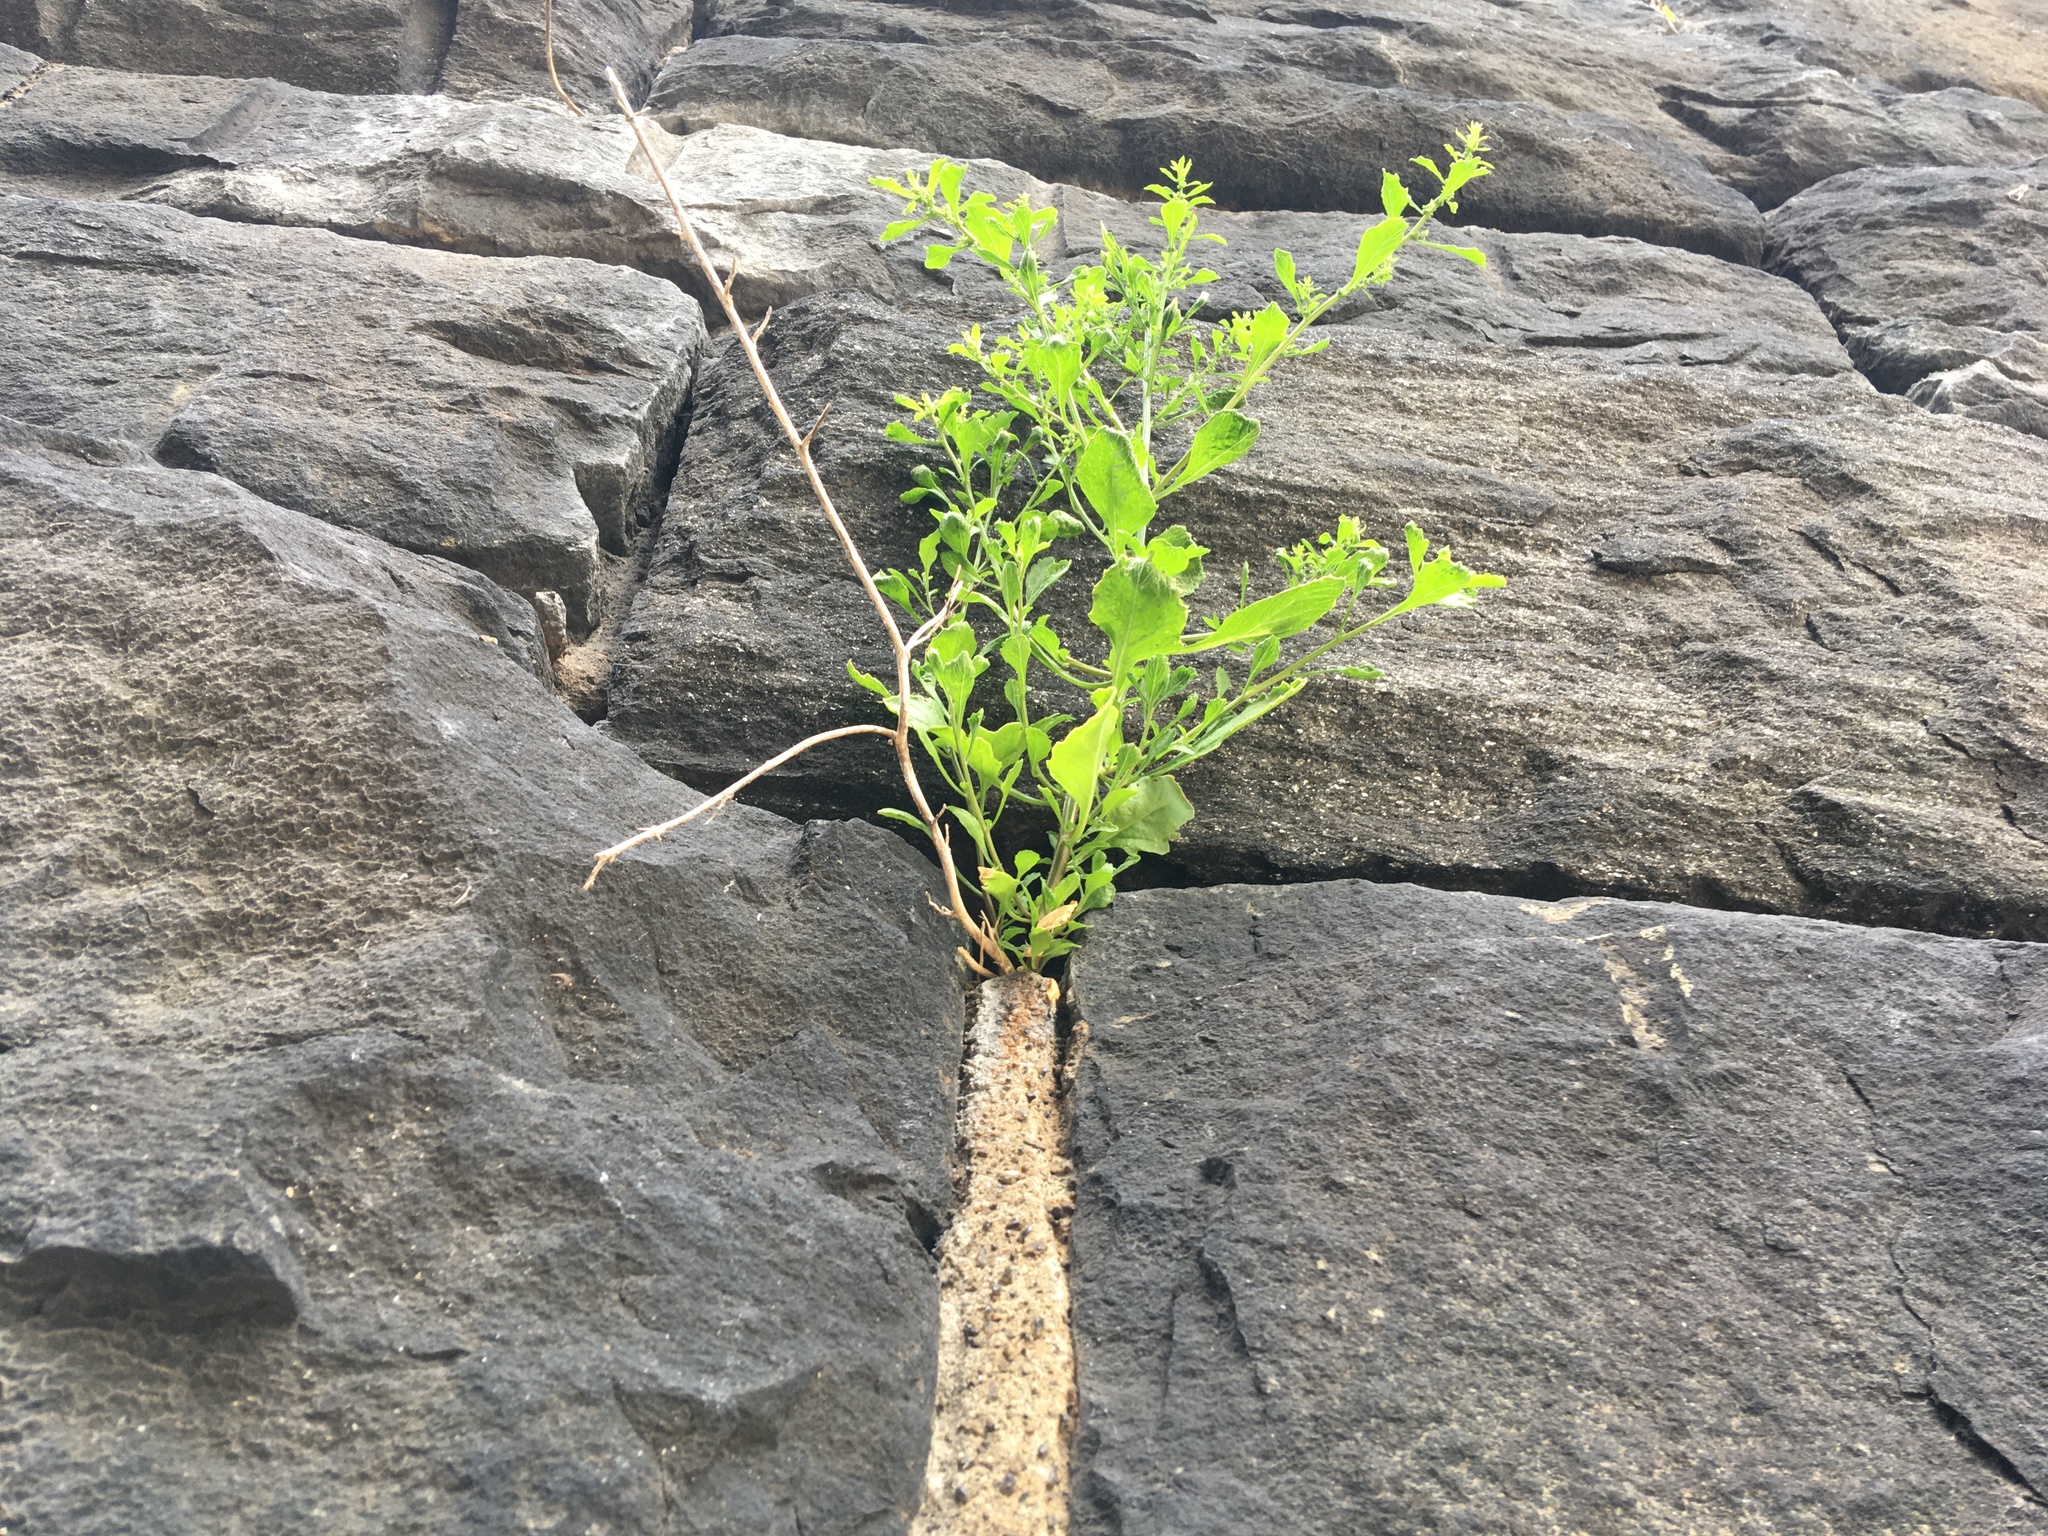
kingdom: Plantae
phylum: Tracheophyta
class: Magnoliopsida
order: Caryophyllales
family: Amaranthaceae
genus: Dysphania
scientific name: Dysphania ambrosioides
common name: Wormseed
